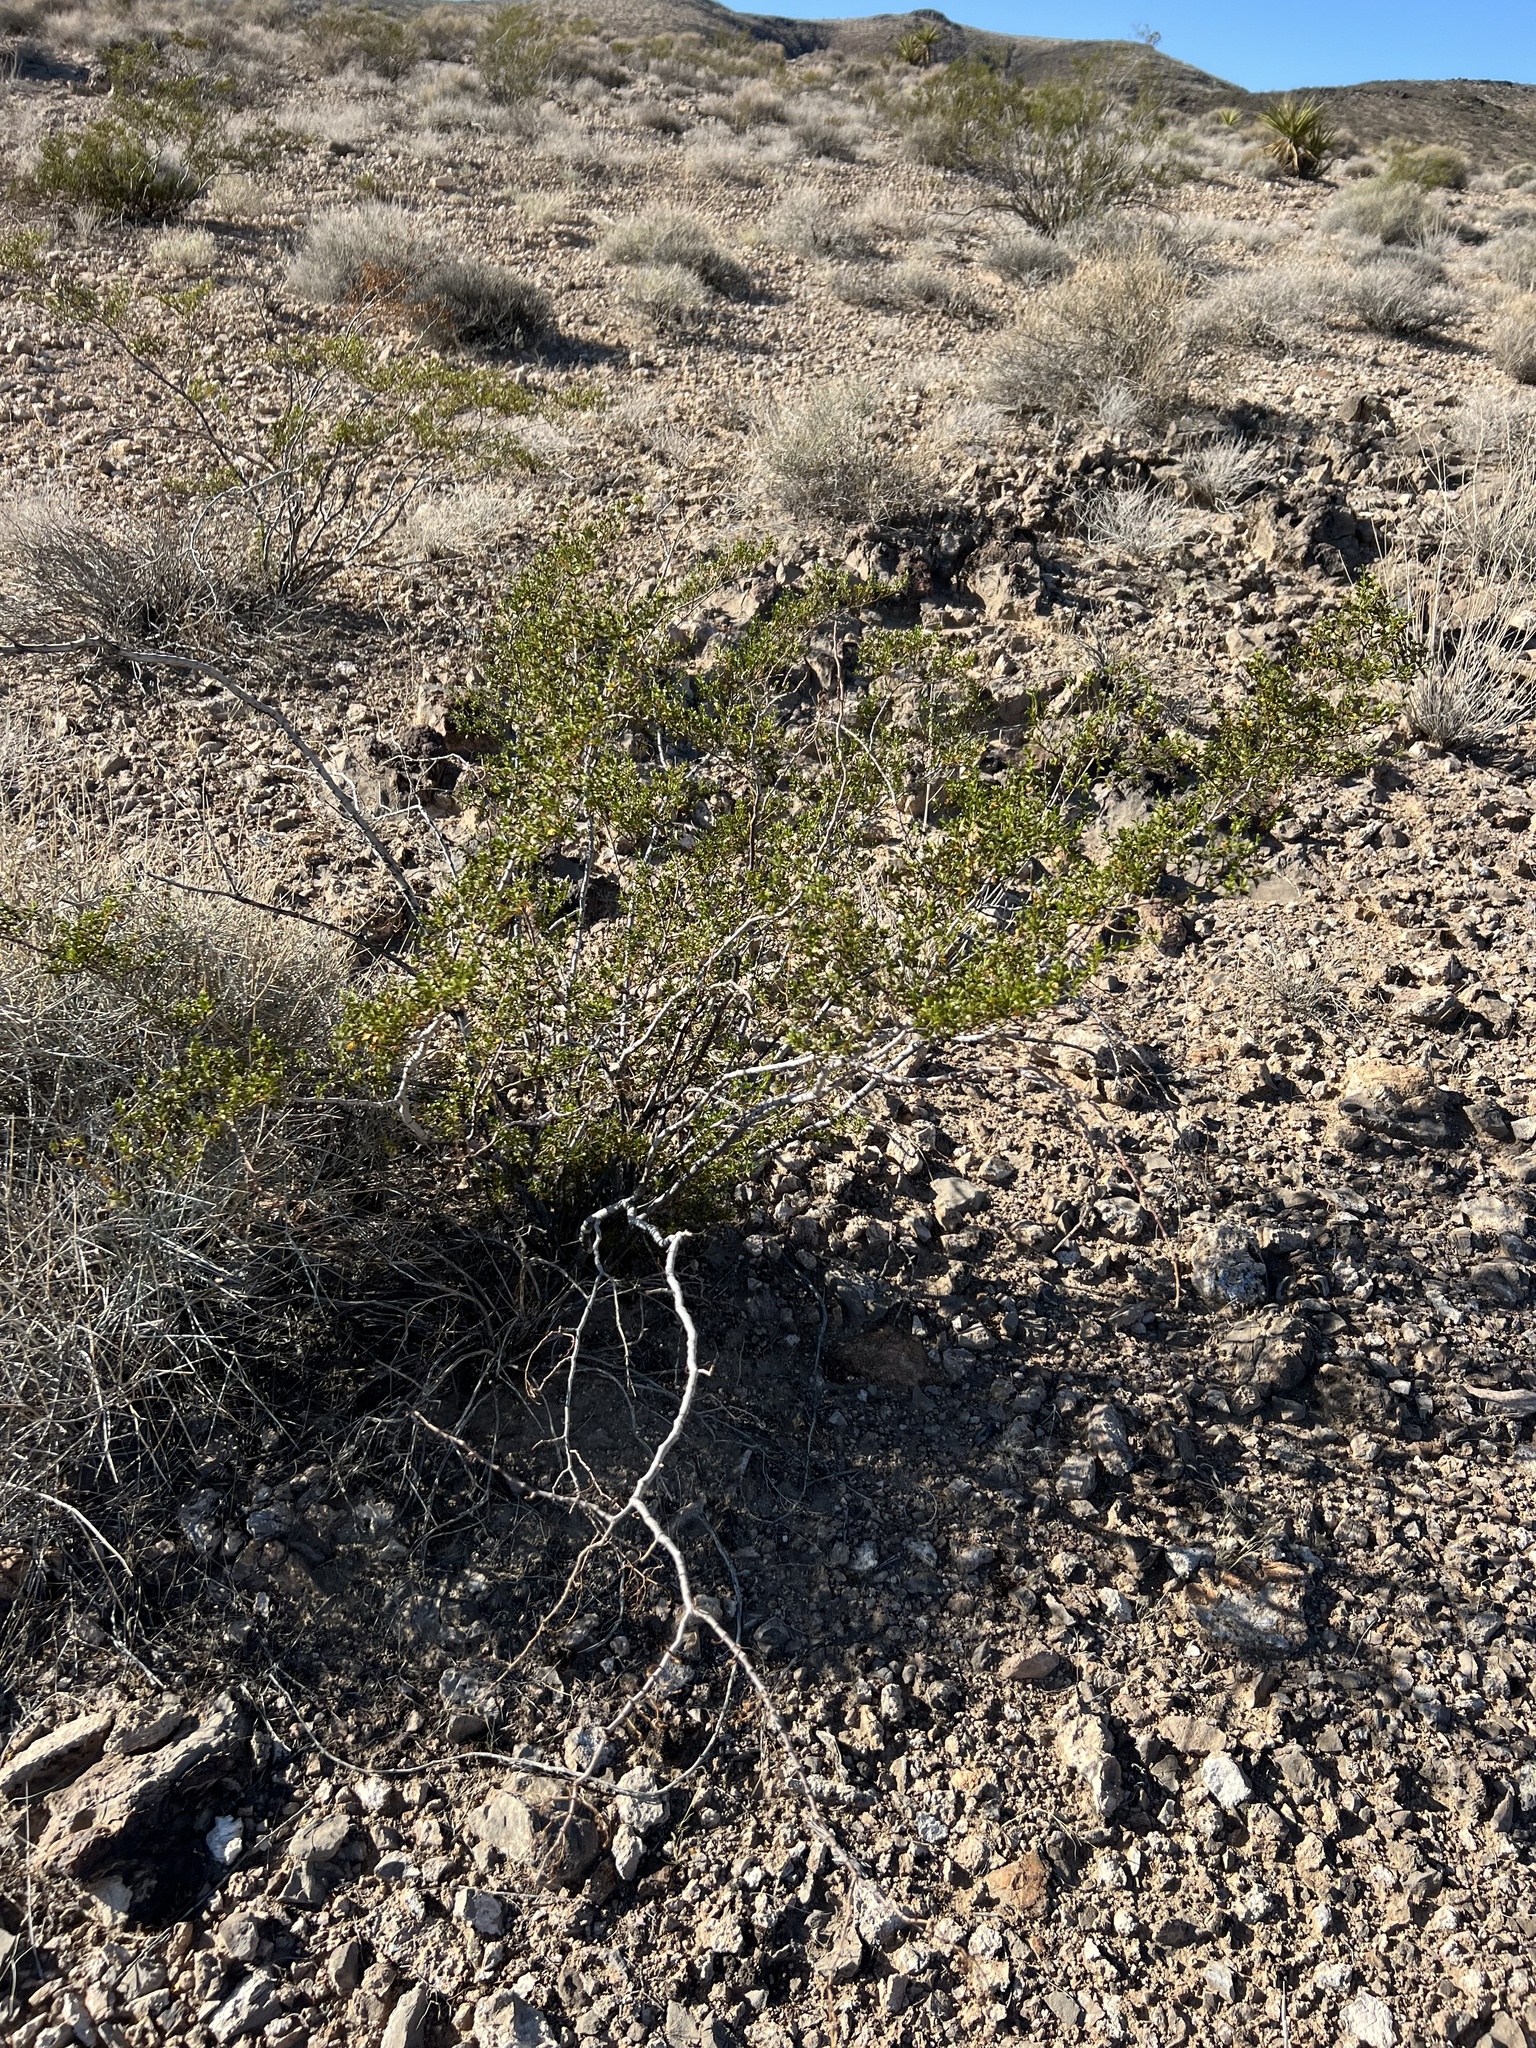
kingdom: Plantae
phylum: Tracheophyta
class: Magnoliopsida
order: Zygophyllales
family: Zygophyllaceae
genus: Larrea
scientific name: Larrea tridentata
